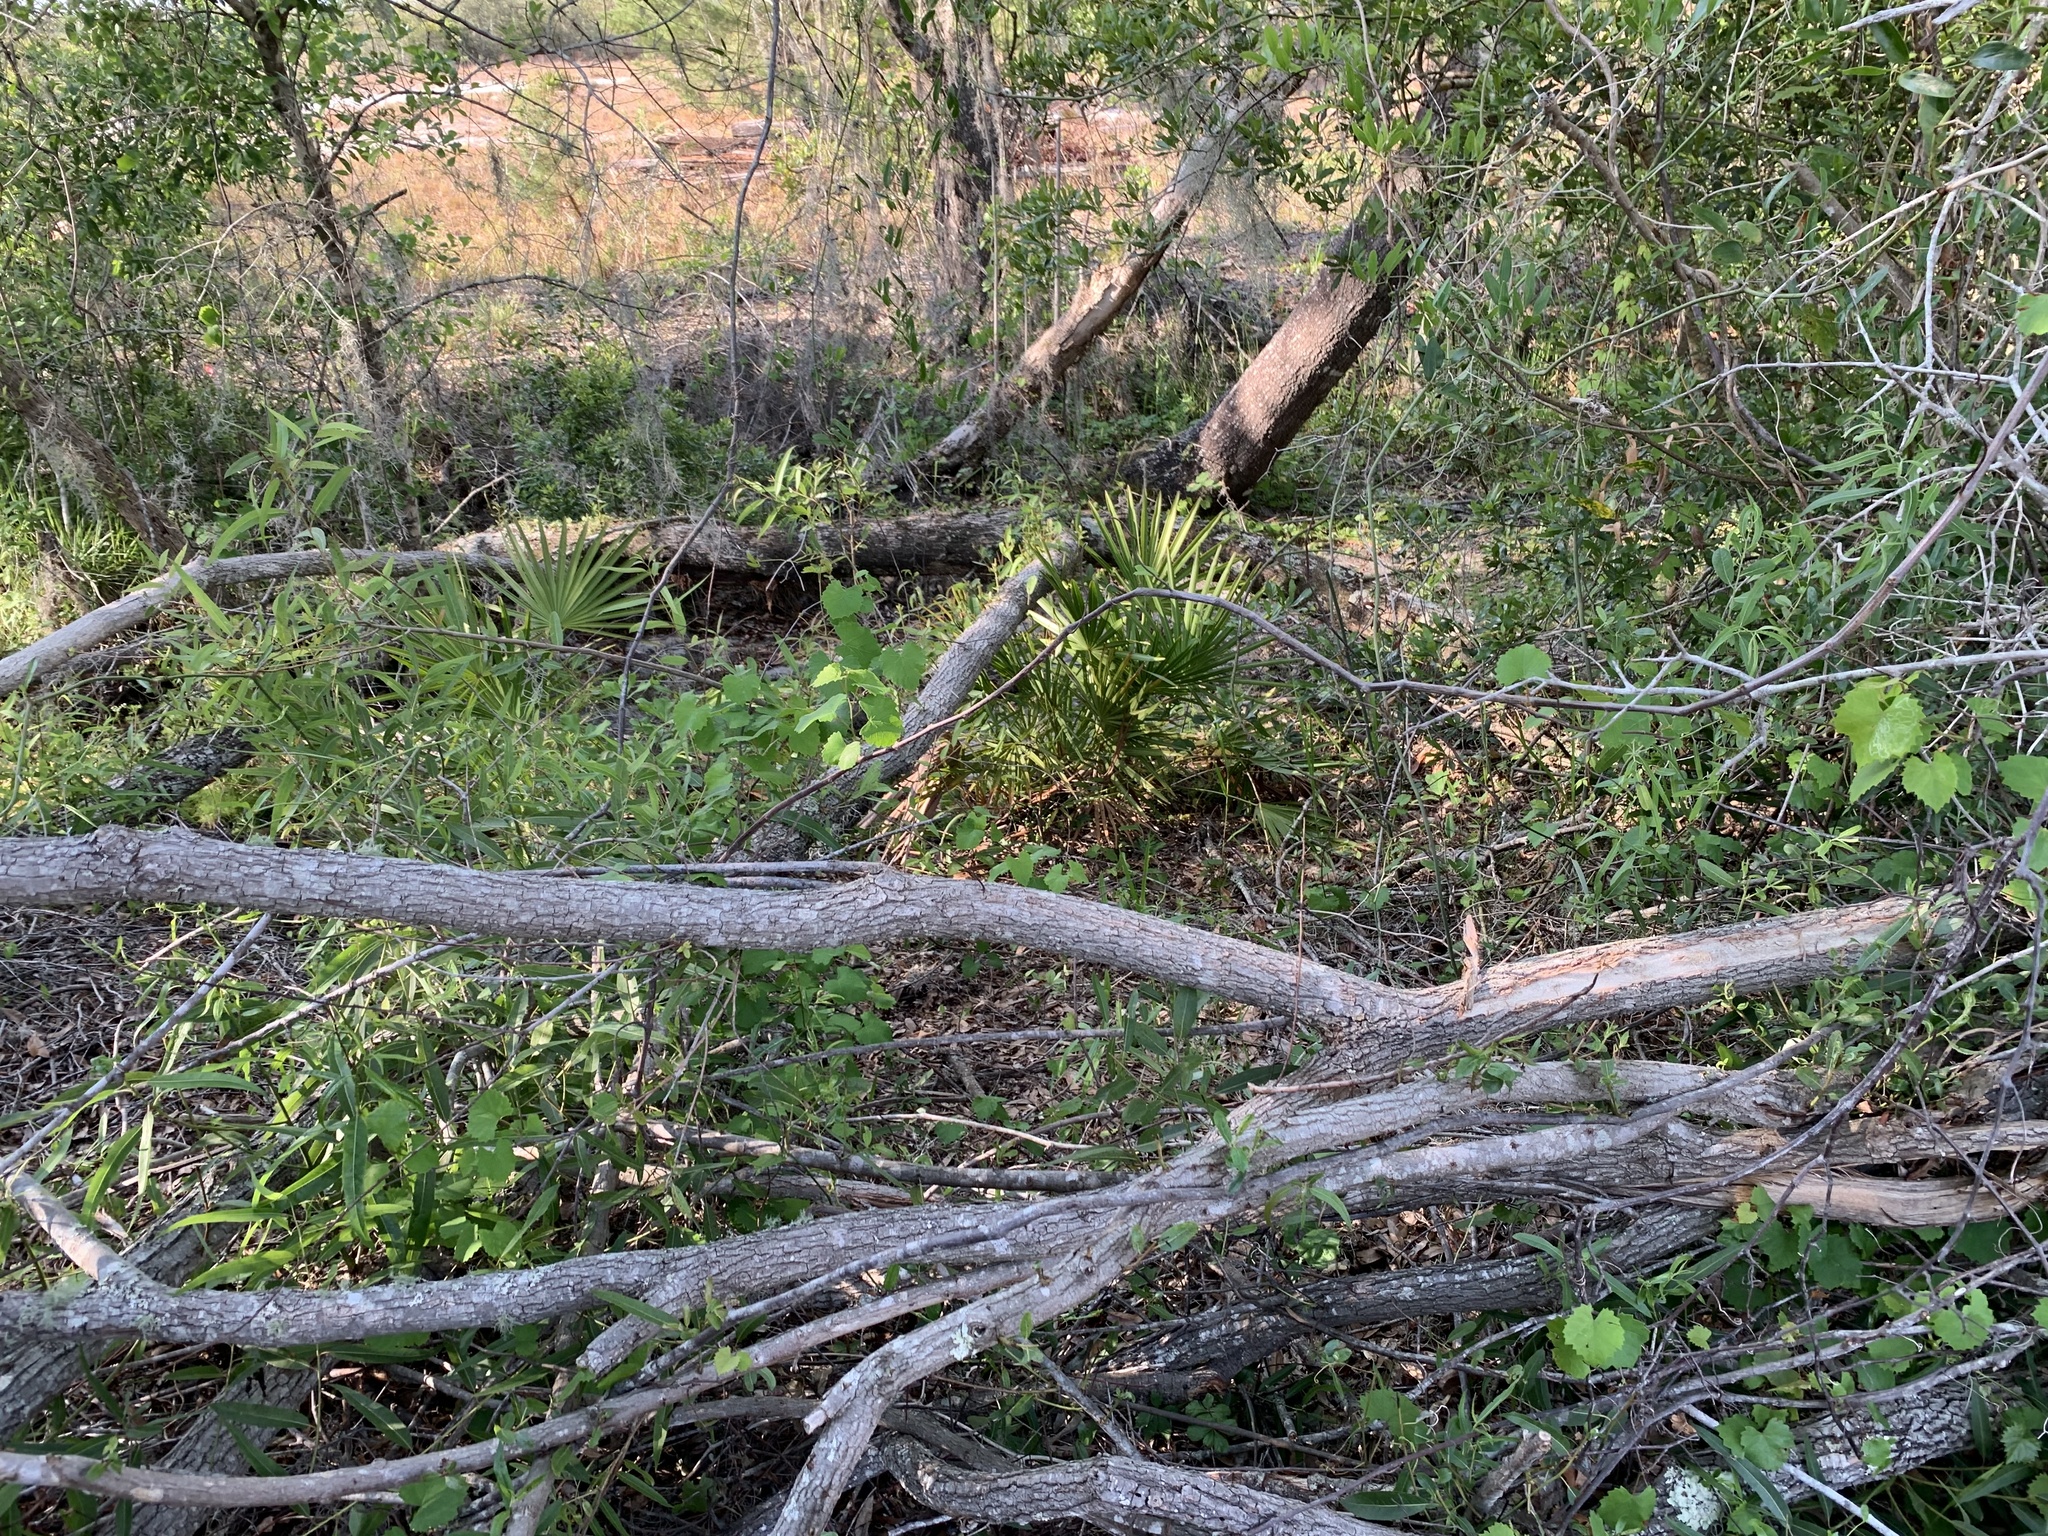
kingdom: Plantae
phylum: Tracheophyta
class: Magnoliopsida
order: Malpighiales
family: Salicaceae
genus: Salix
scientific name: Salix caroliniana
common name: Carolina willow
